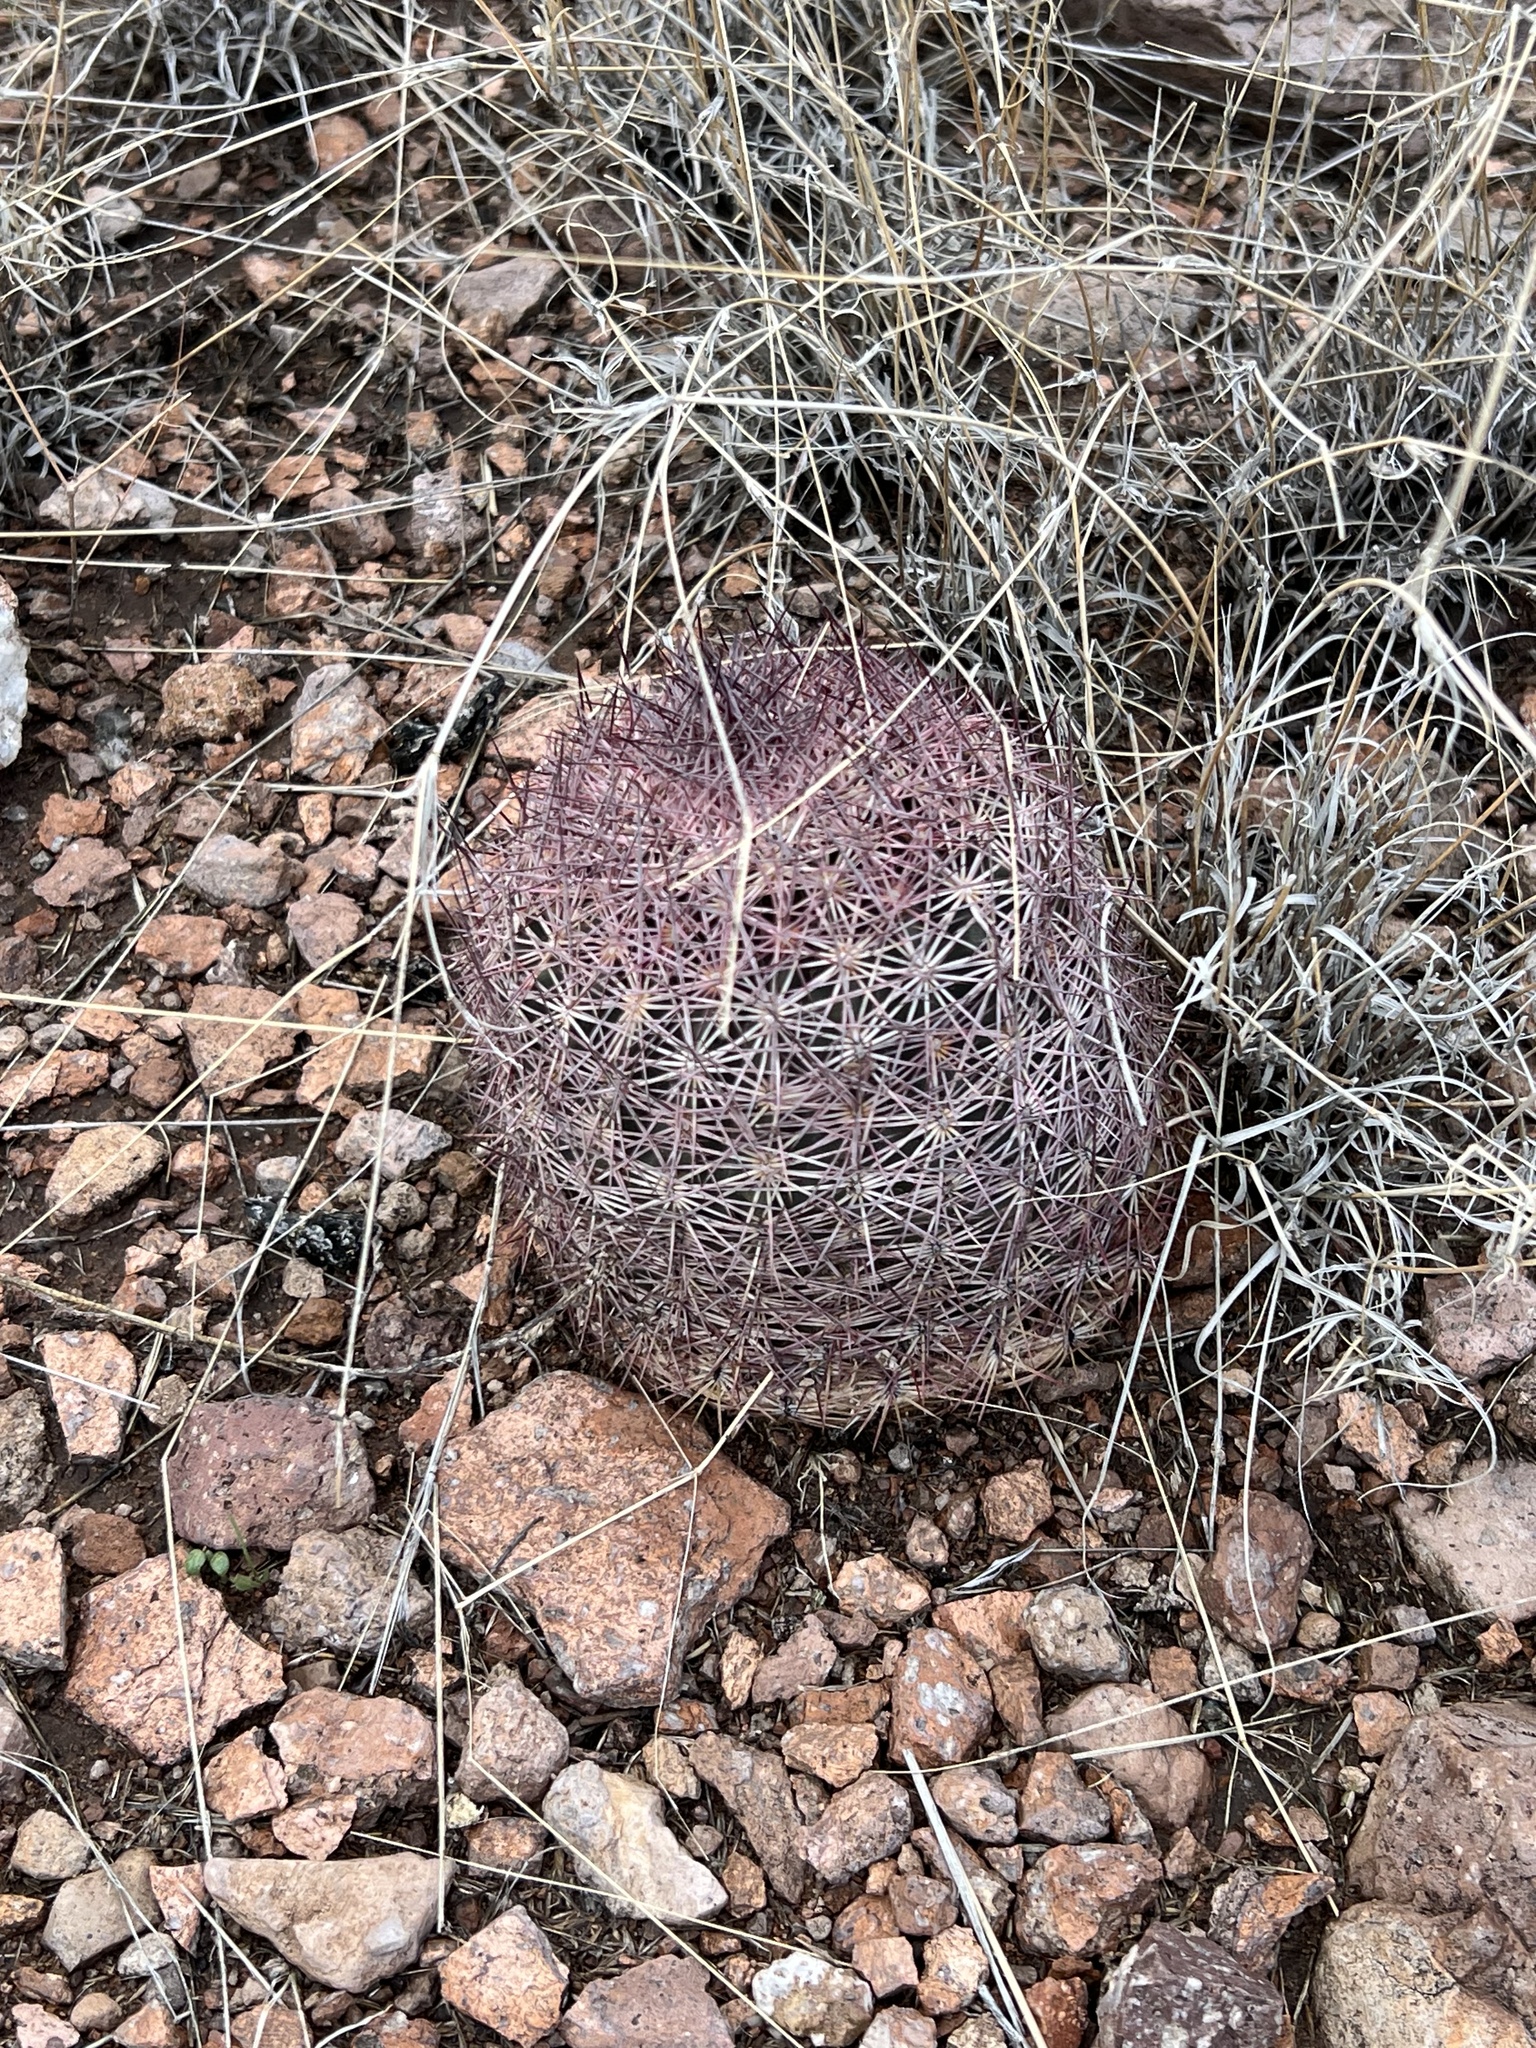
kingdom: Plantae
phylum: Tracheophyta
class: Magnoliopsida
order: Caryophyllales
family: Cactaceae
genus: Sclerocactus
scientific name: Sclerocactus johnsonii
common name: Eight-spine fishhook cactus
